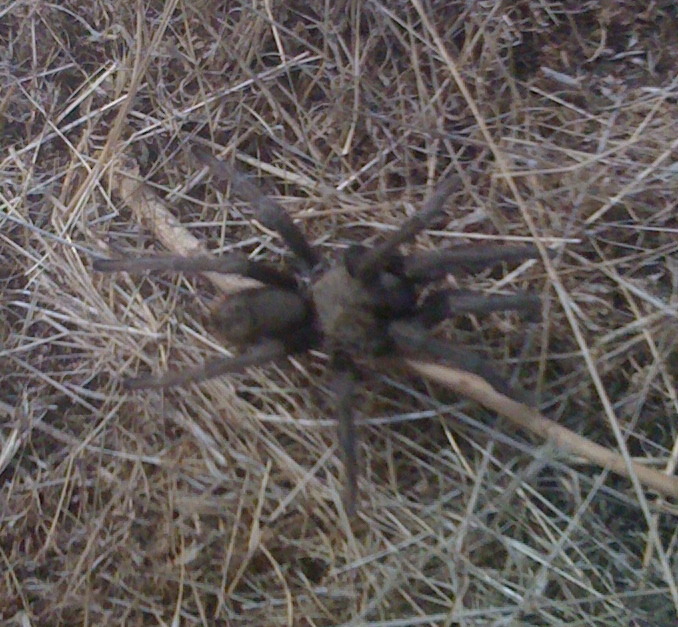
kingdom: Animalia
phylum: Arthropoda
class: Arachnida
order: Araneae
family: Theraphosidae
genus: Aphonopelma
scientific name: Aphonopelma iodius
